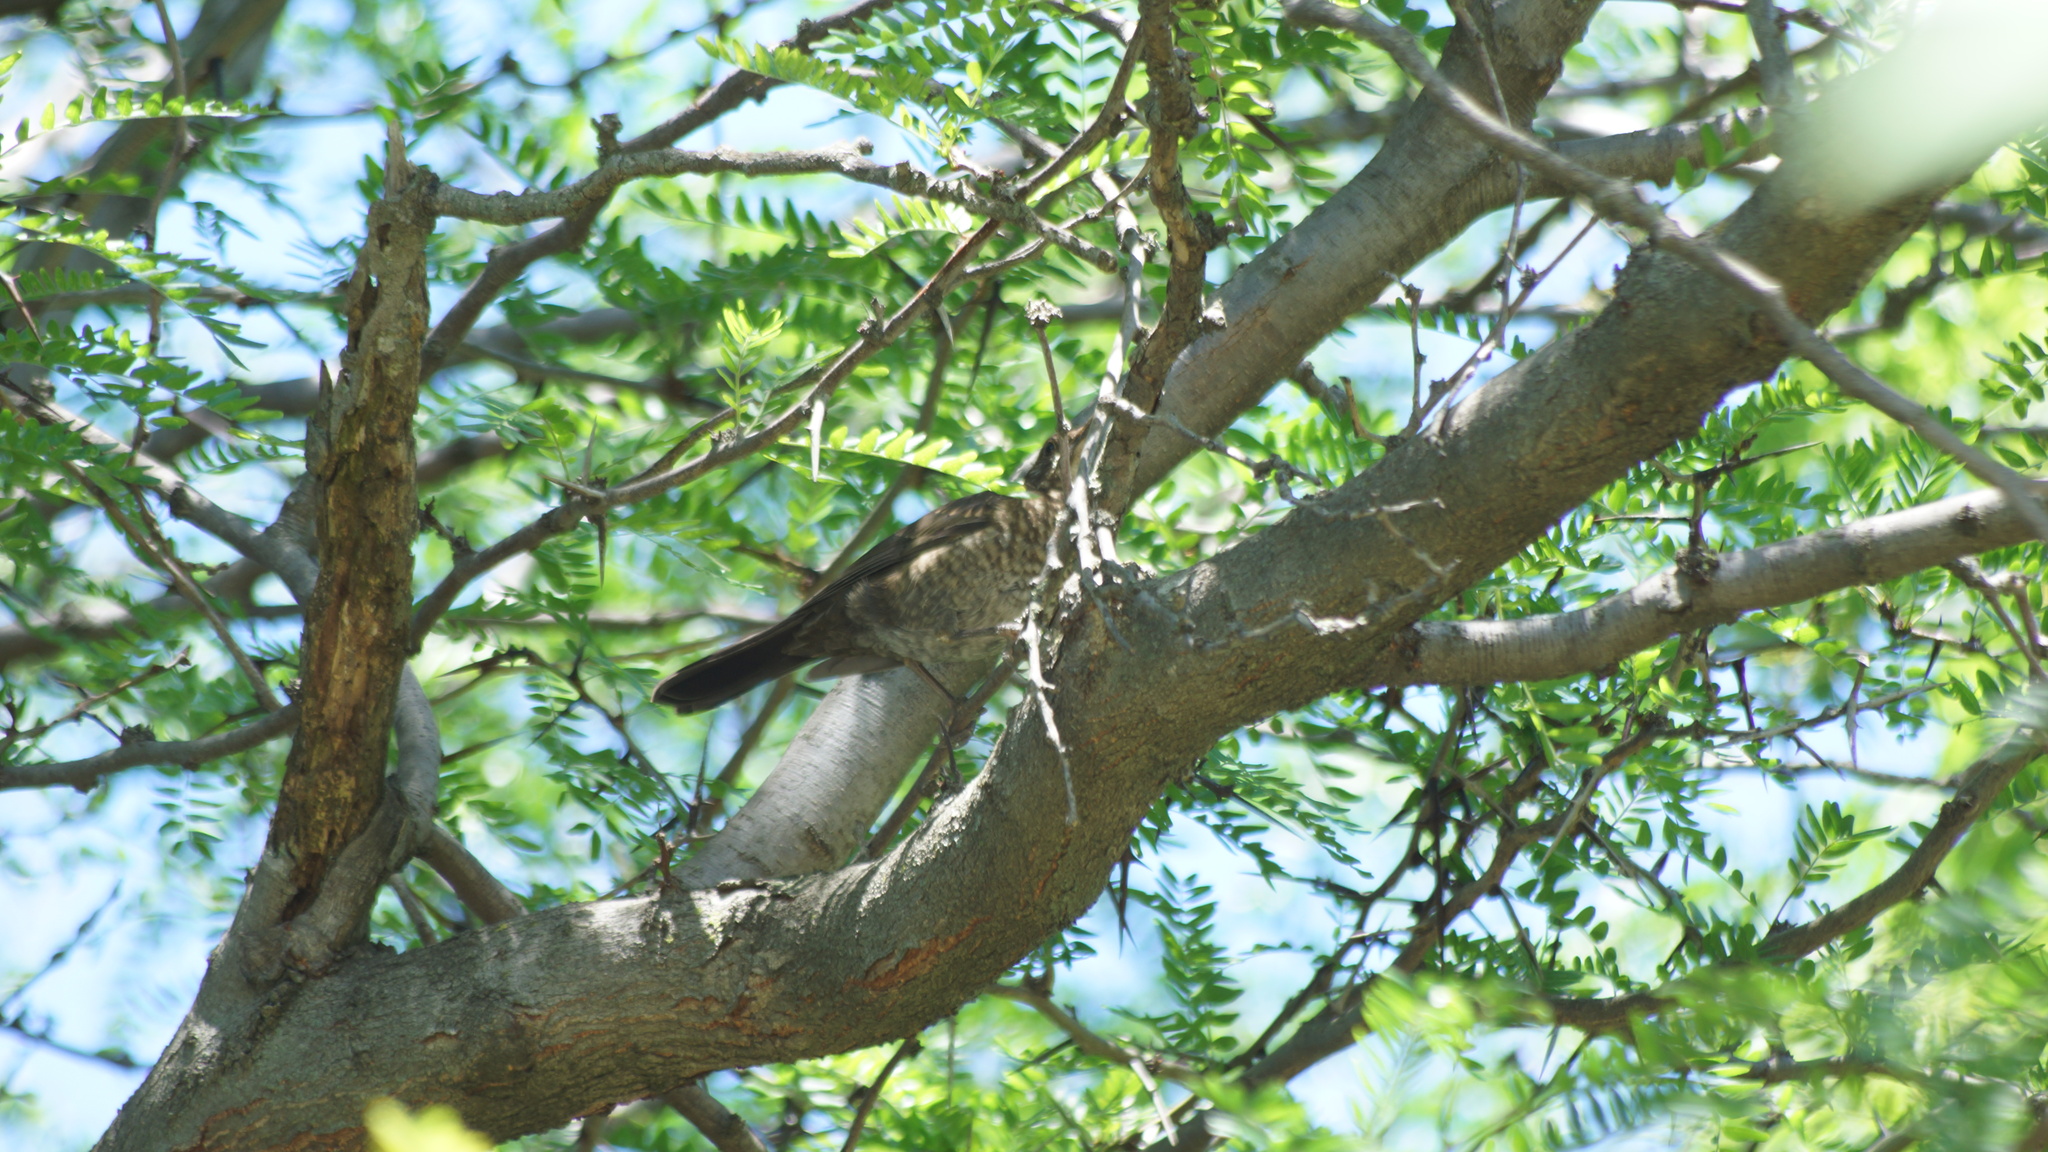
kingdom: Animalia
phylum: Chordata
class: Aves
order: Passeriformes
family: Turdidae
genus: Turdus
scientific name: Turdus merula
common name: Common blackbird
